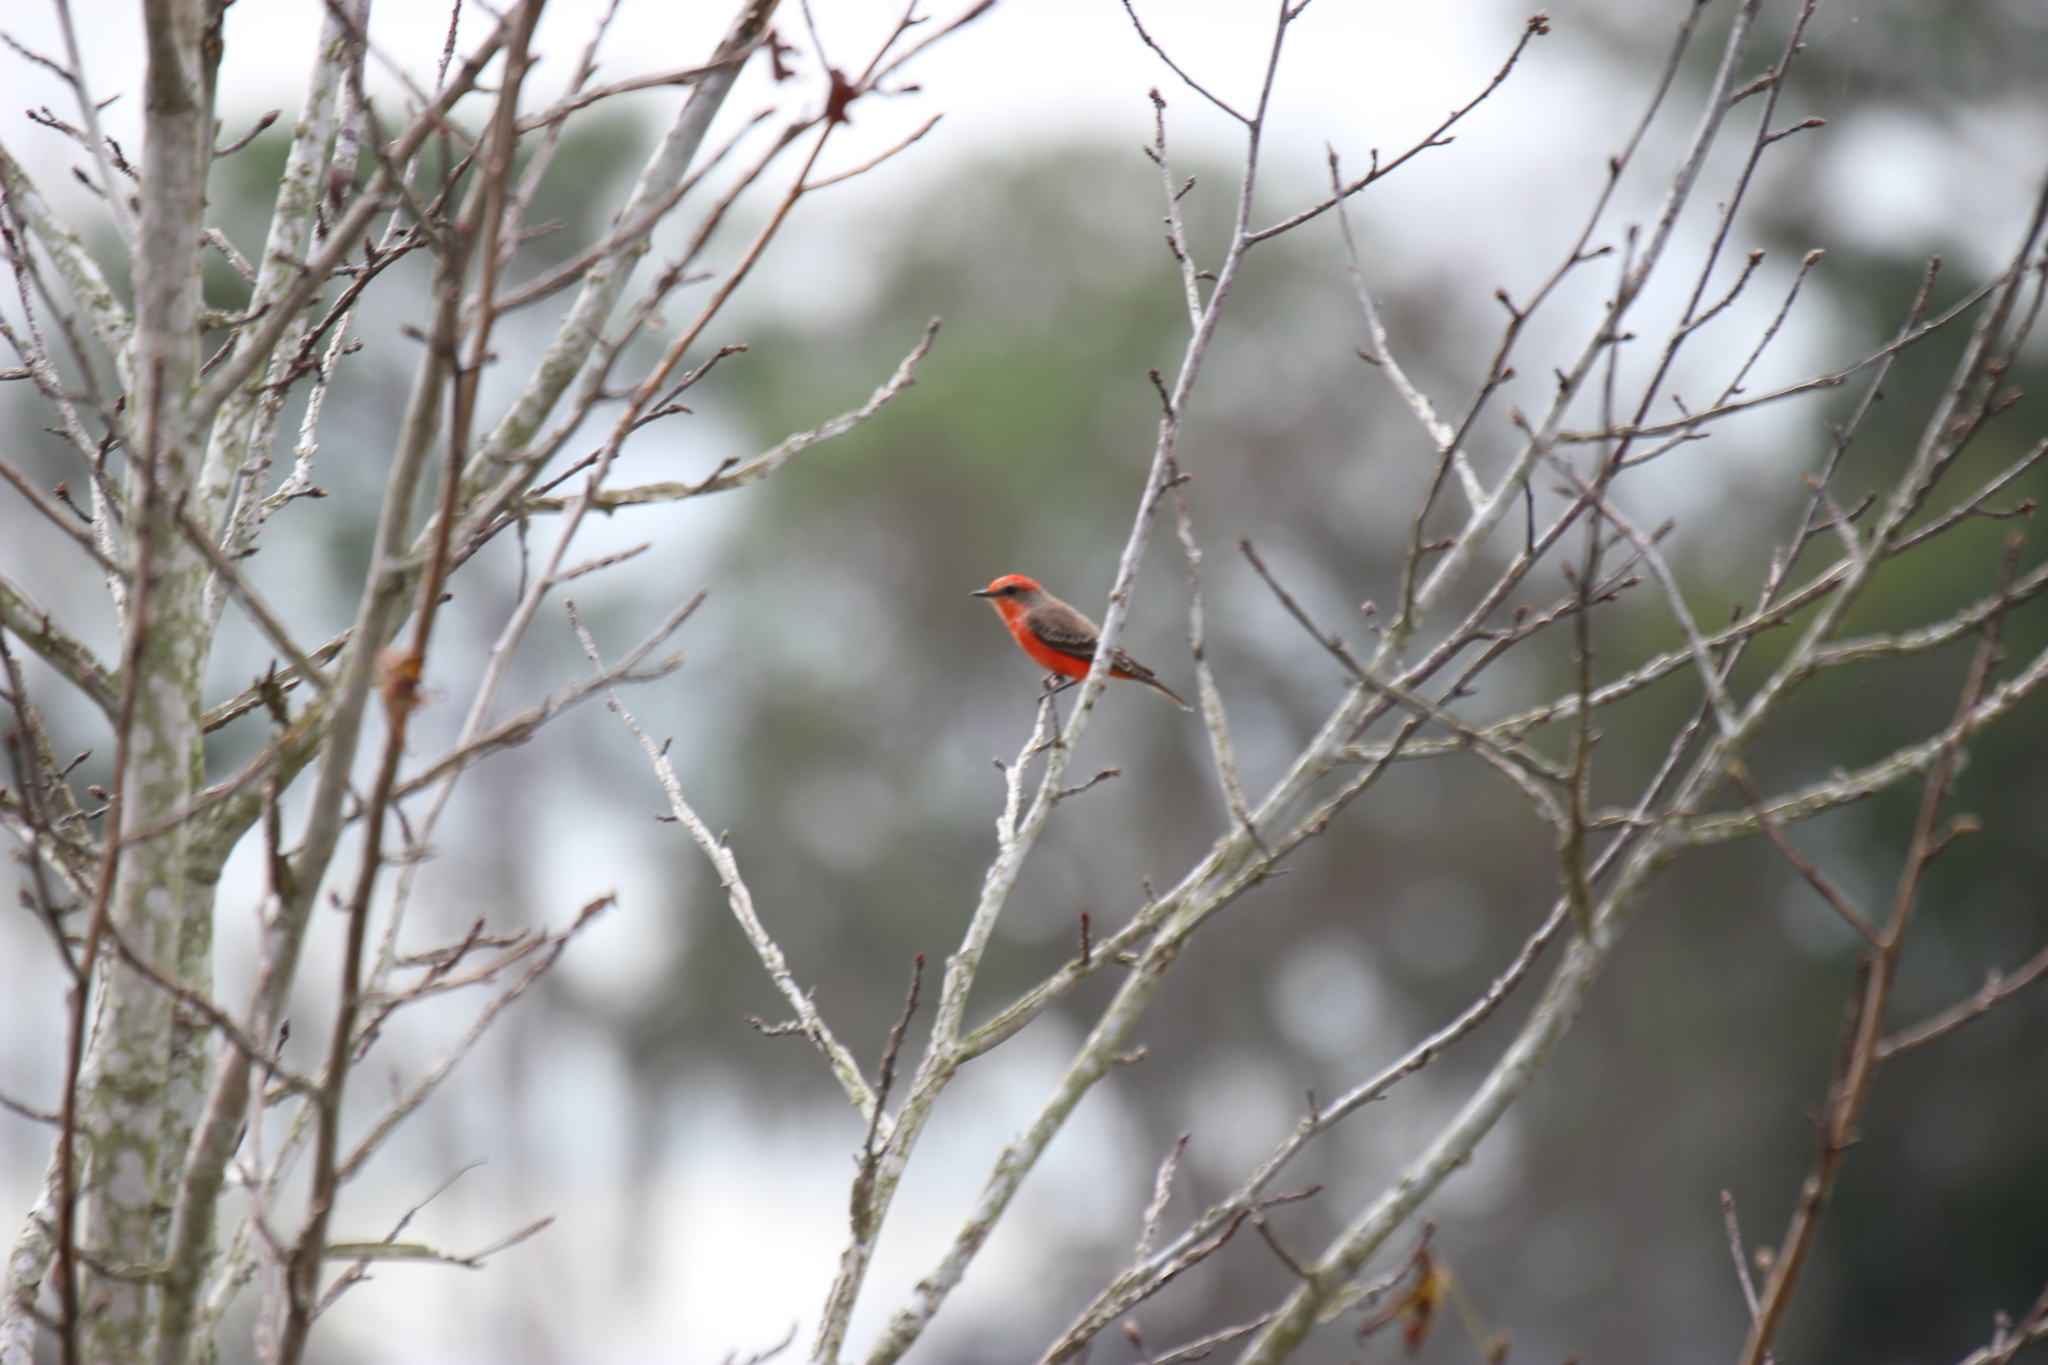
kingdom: Animalia
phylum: Chordata
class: Aves
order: Passeriformes
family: Tyrannidae
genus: Pyrocephalus
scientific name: Pyrocephalus rubinus
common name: Vermilion flycatcher
